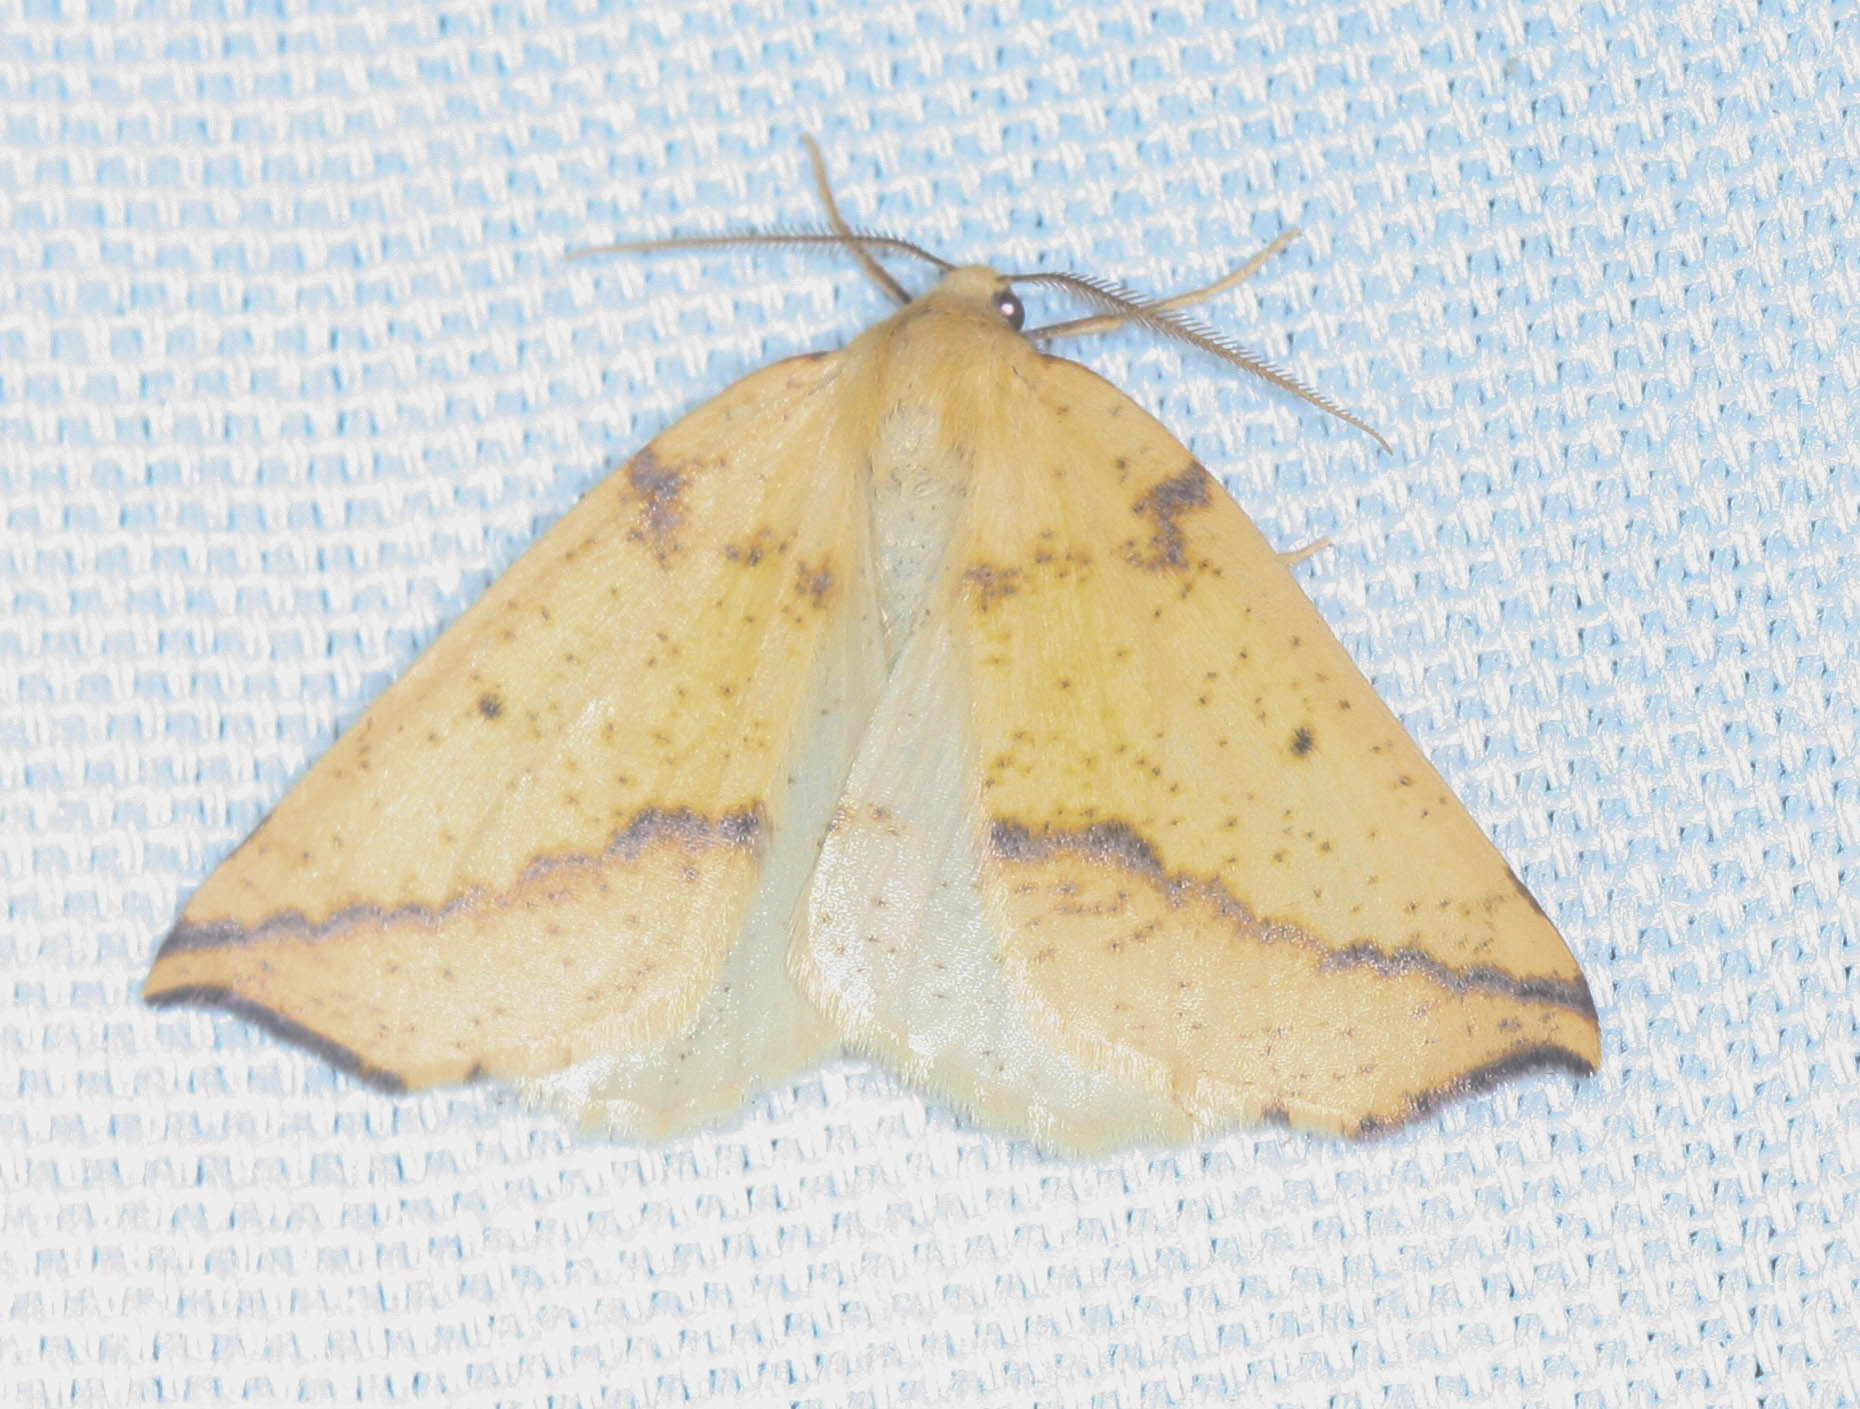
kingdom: Animalia
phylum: Arthropoda
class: Insecta
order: Lepidoptera
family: Geometridae
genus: Neoterpes
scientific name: Neoterpes edwardsata
